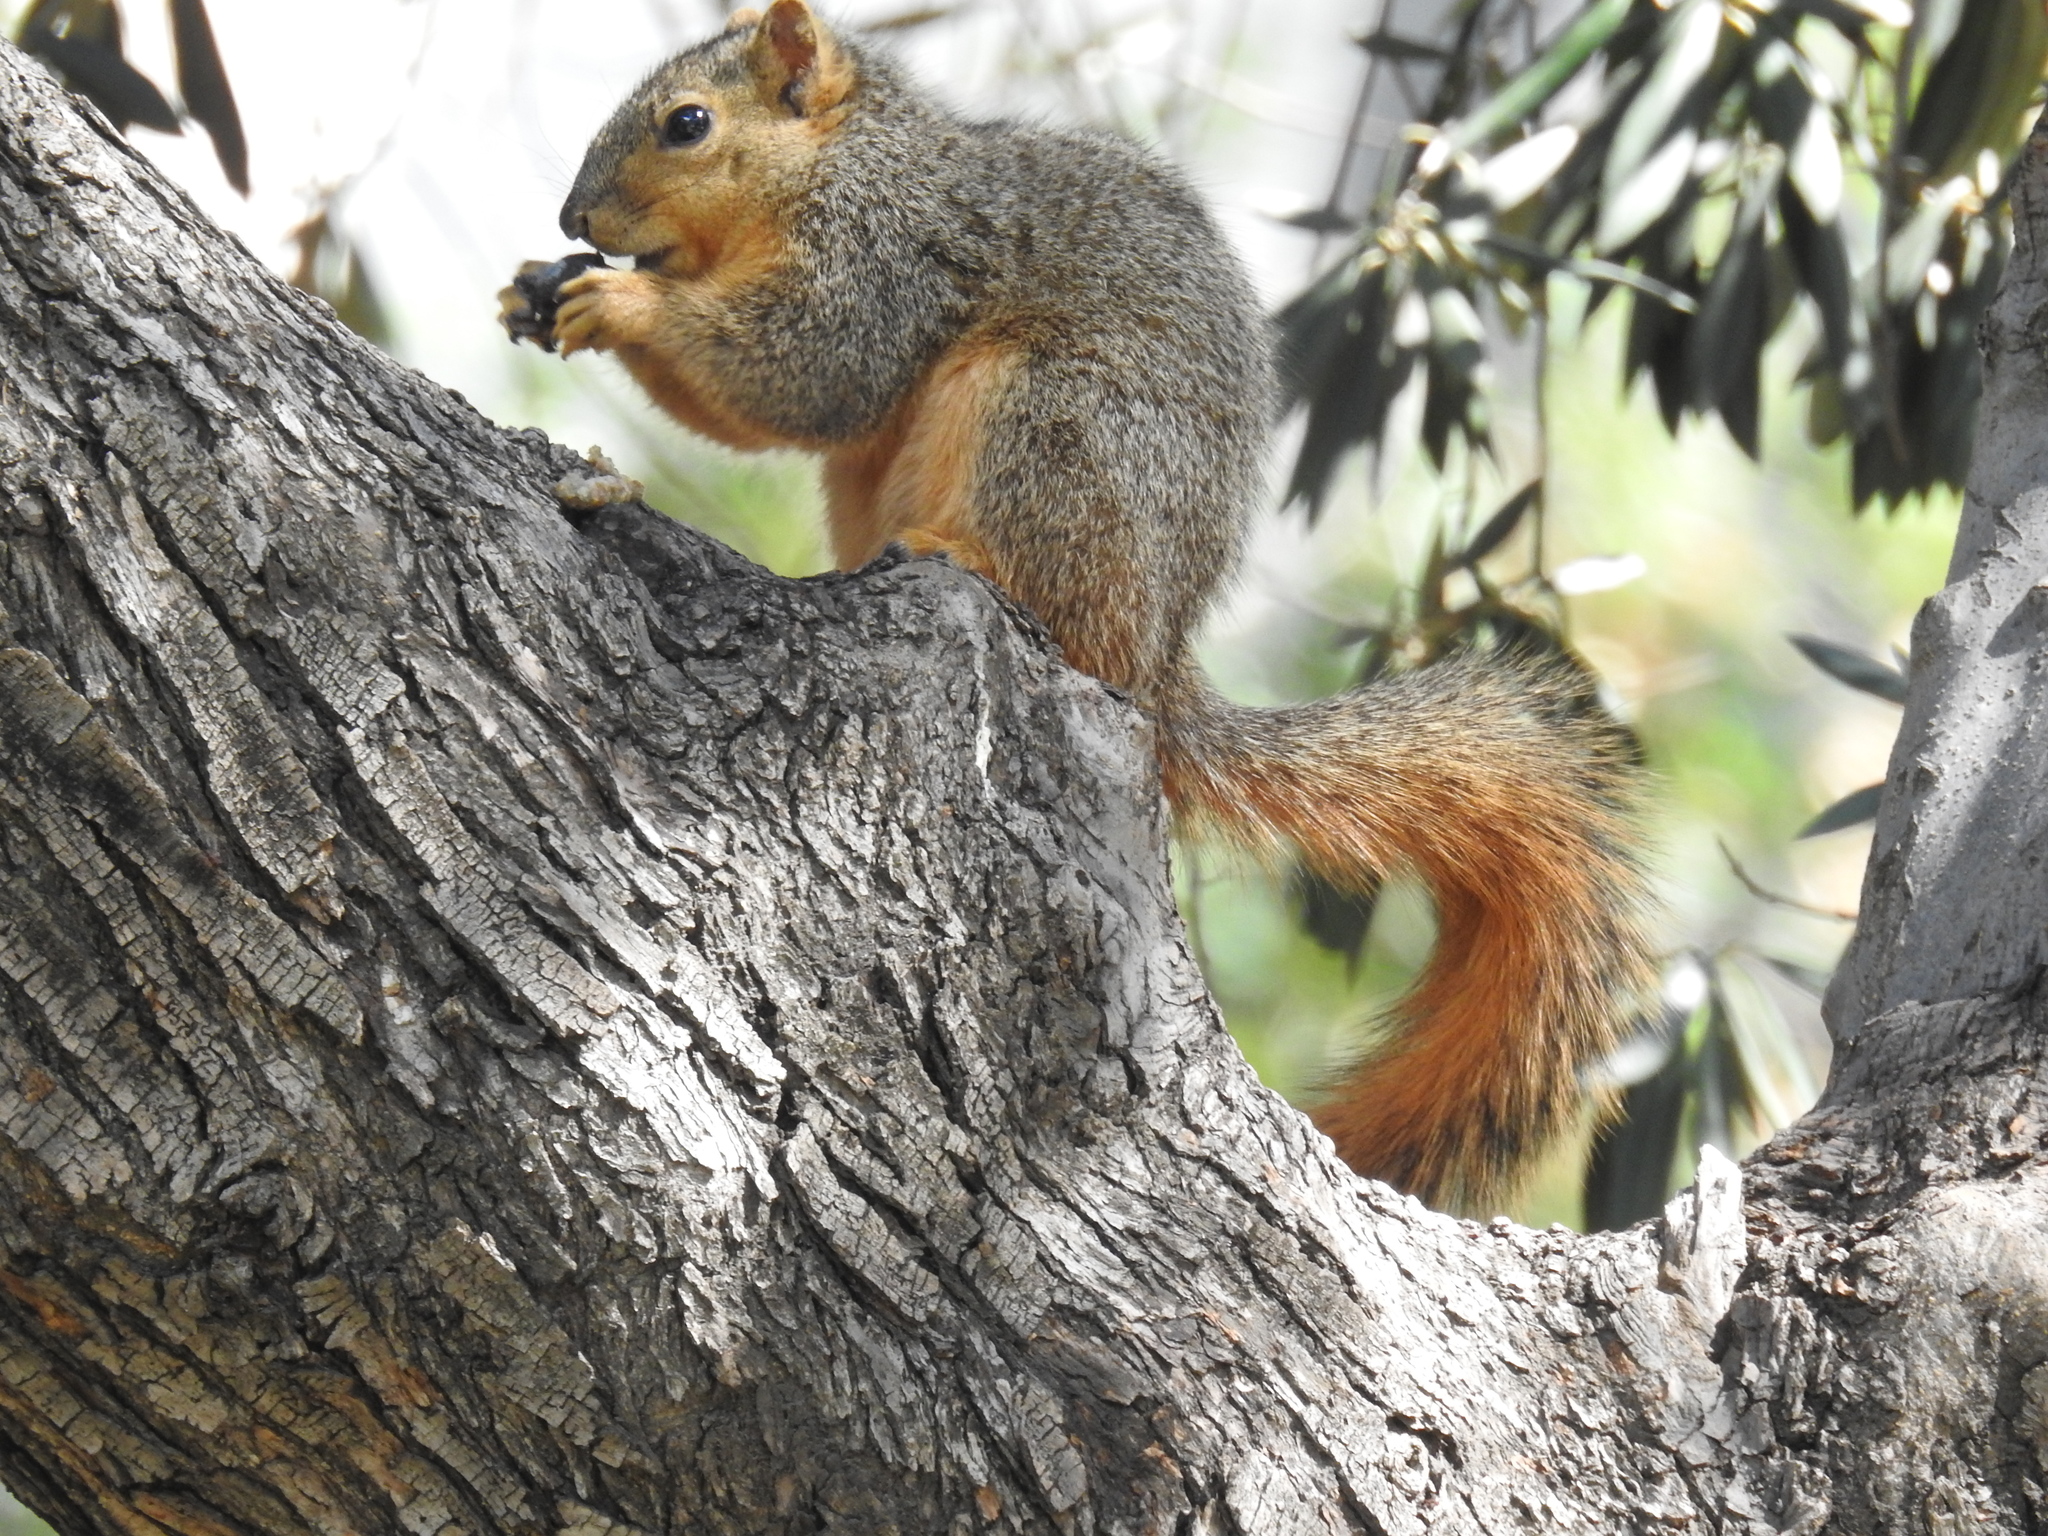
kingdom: Animalia
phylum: Chordata
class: Mammalia
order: Rodentia
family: Sciuridae
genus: Sciurus
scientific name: Sciurus niger
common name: Fox squirrel
